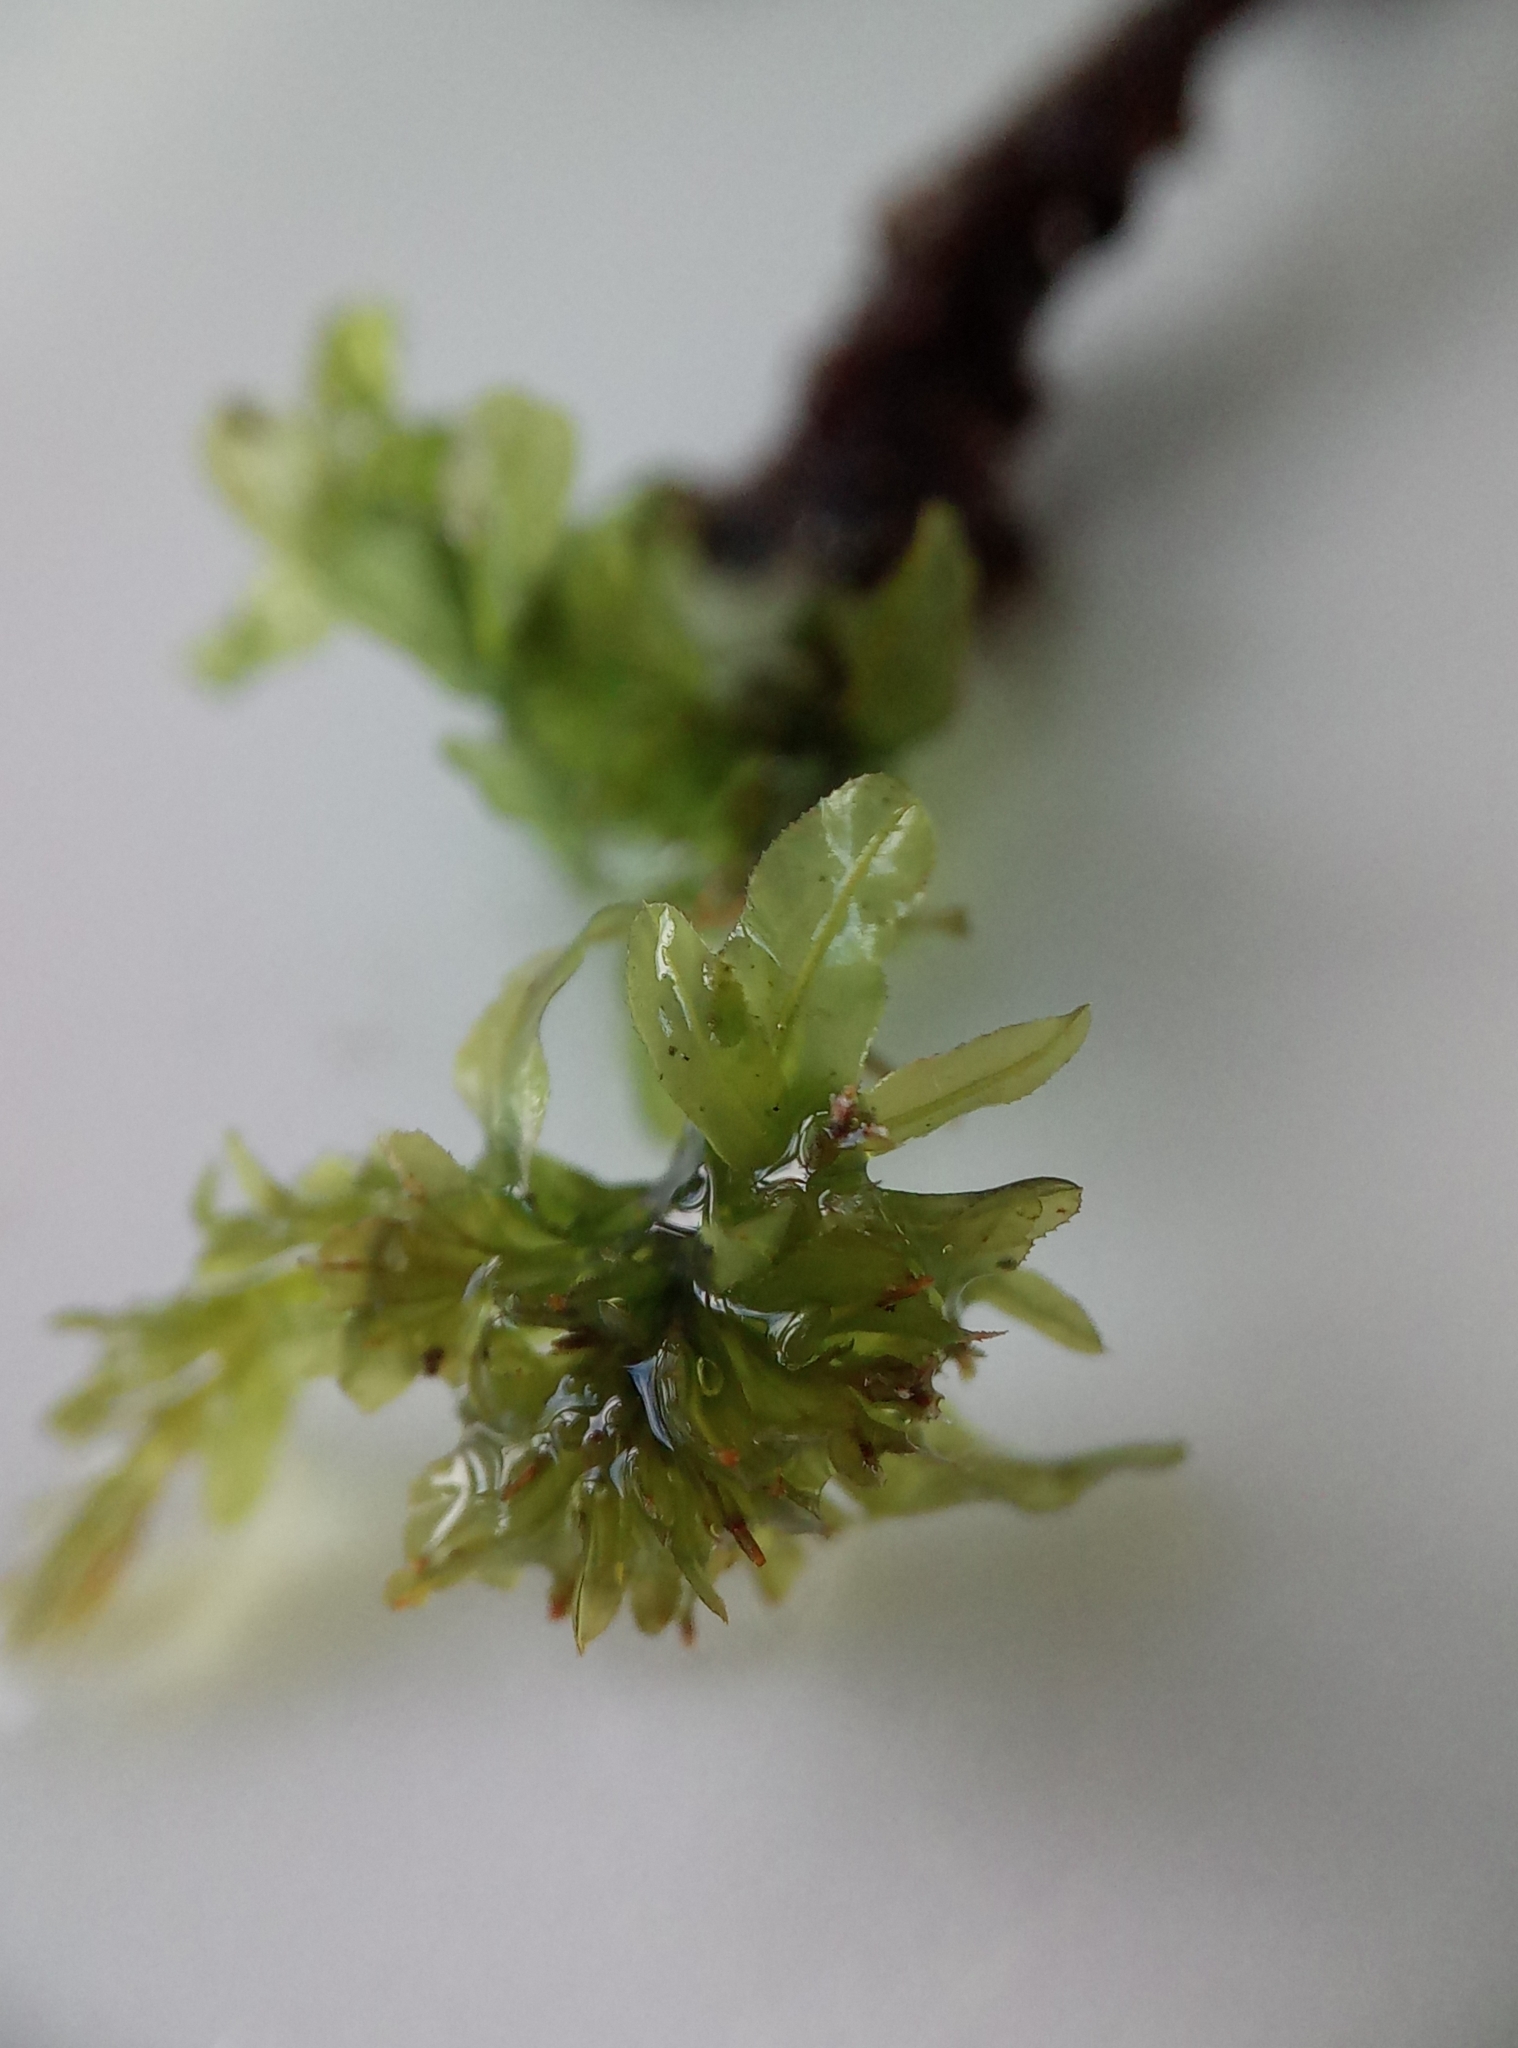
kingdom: Plantae
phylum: Bryophyta
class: Bryopsida
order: Bryales
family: Mniaceae
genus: Plagiomnium
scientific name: Plagiomnium undulatum
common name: Hart's-tongue thyme-moss
